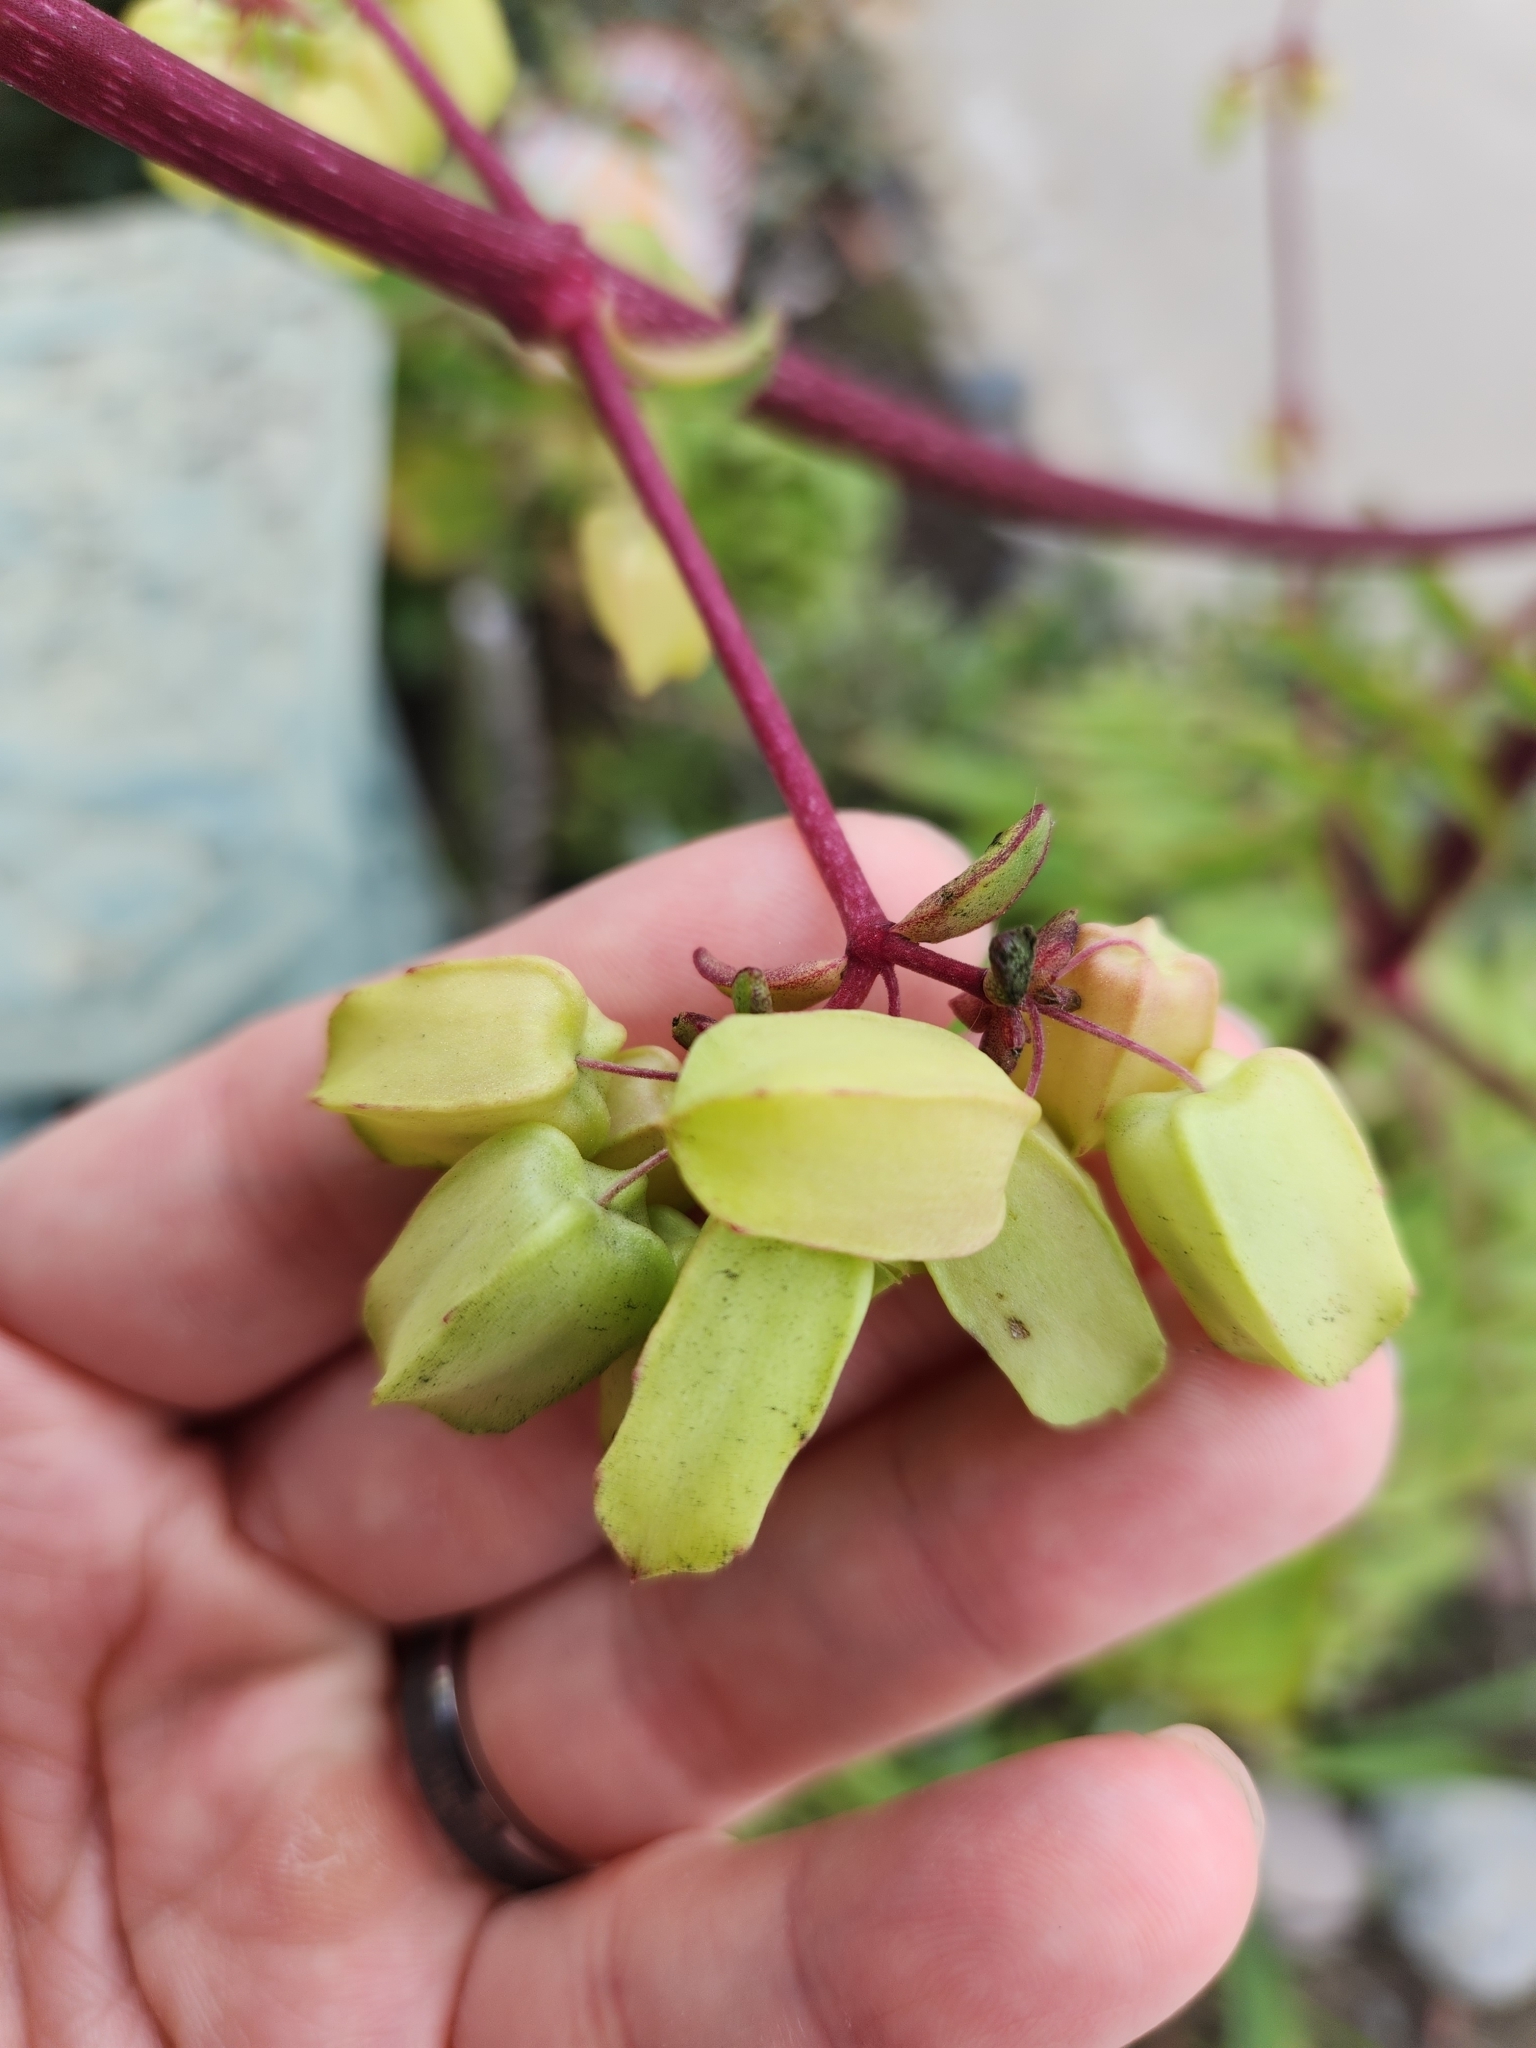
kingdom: Plantae
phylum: Tracheophyta
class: Magnoliopsida
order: Saxifragales
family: Crassulaceae
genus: Kalanchoe
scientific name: Kalanchoe prolifera
